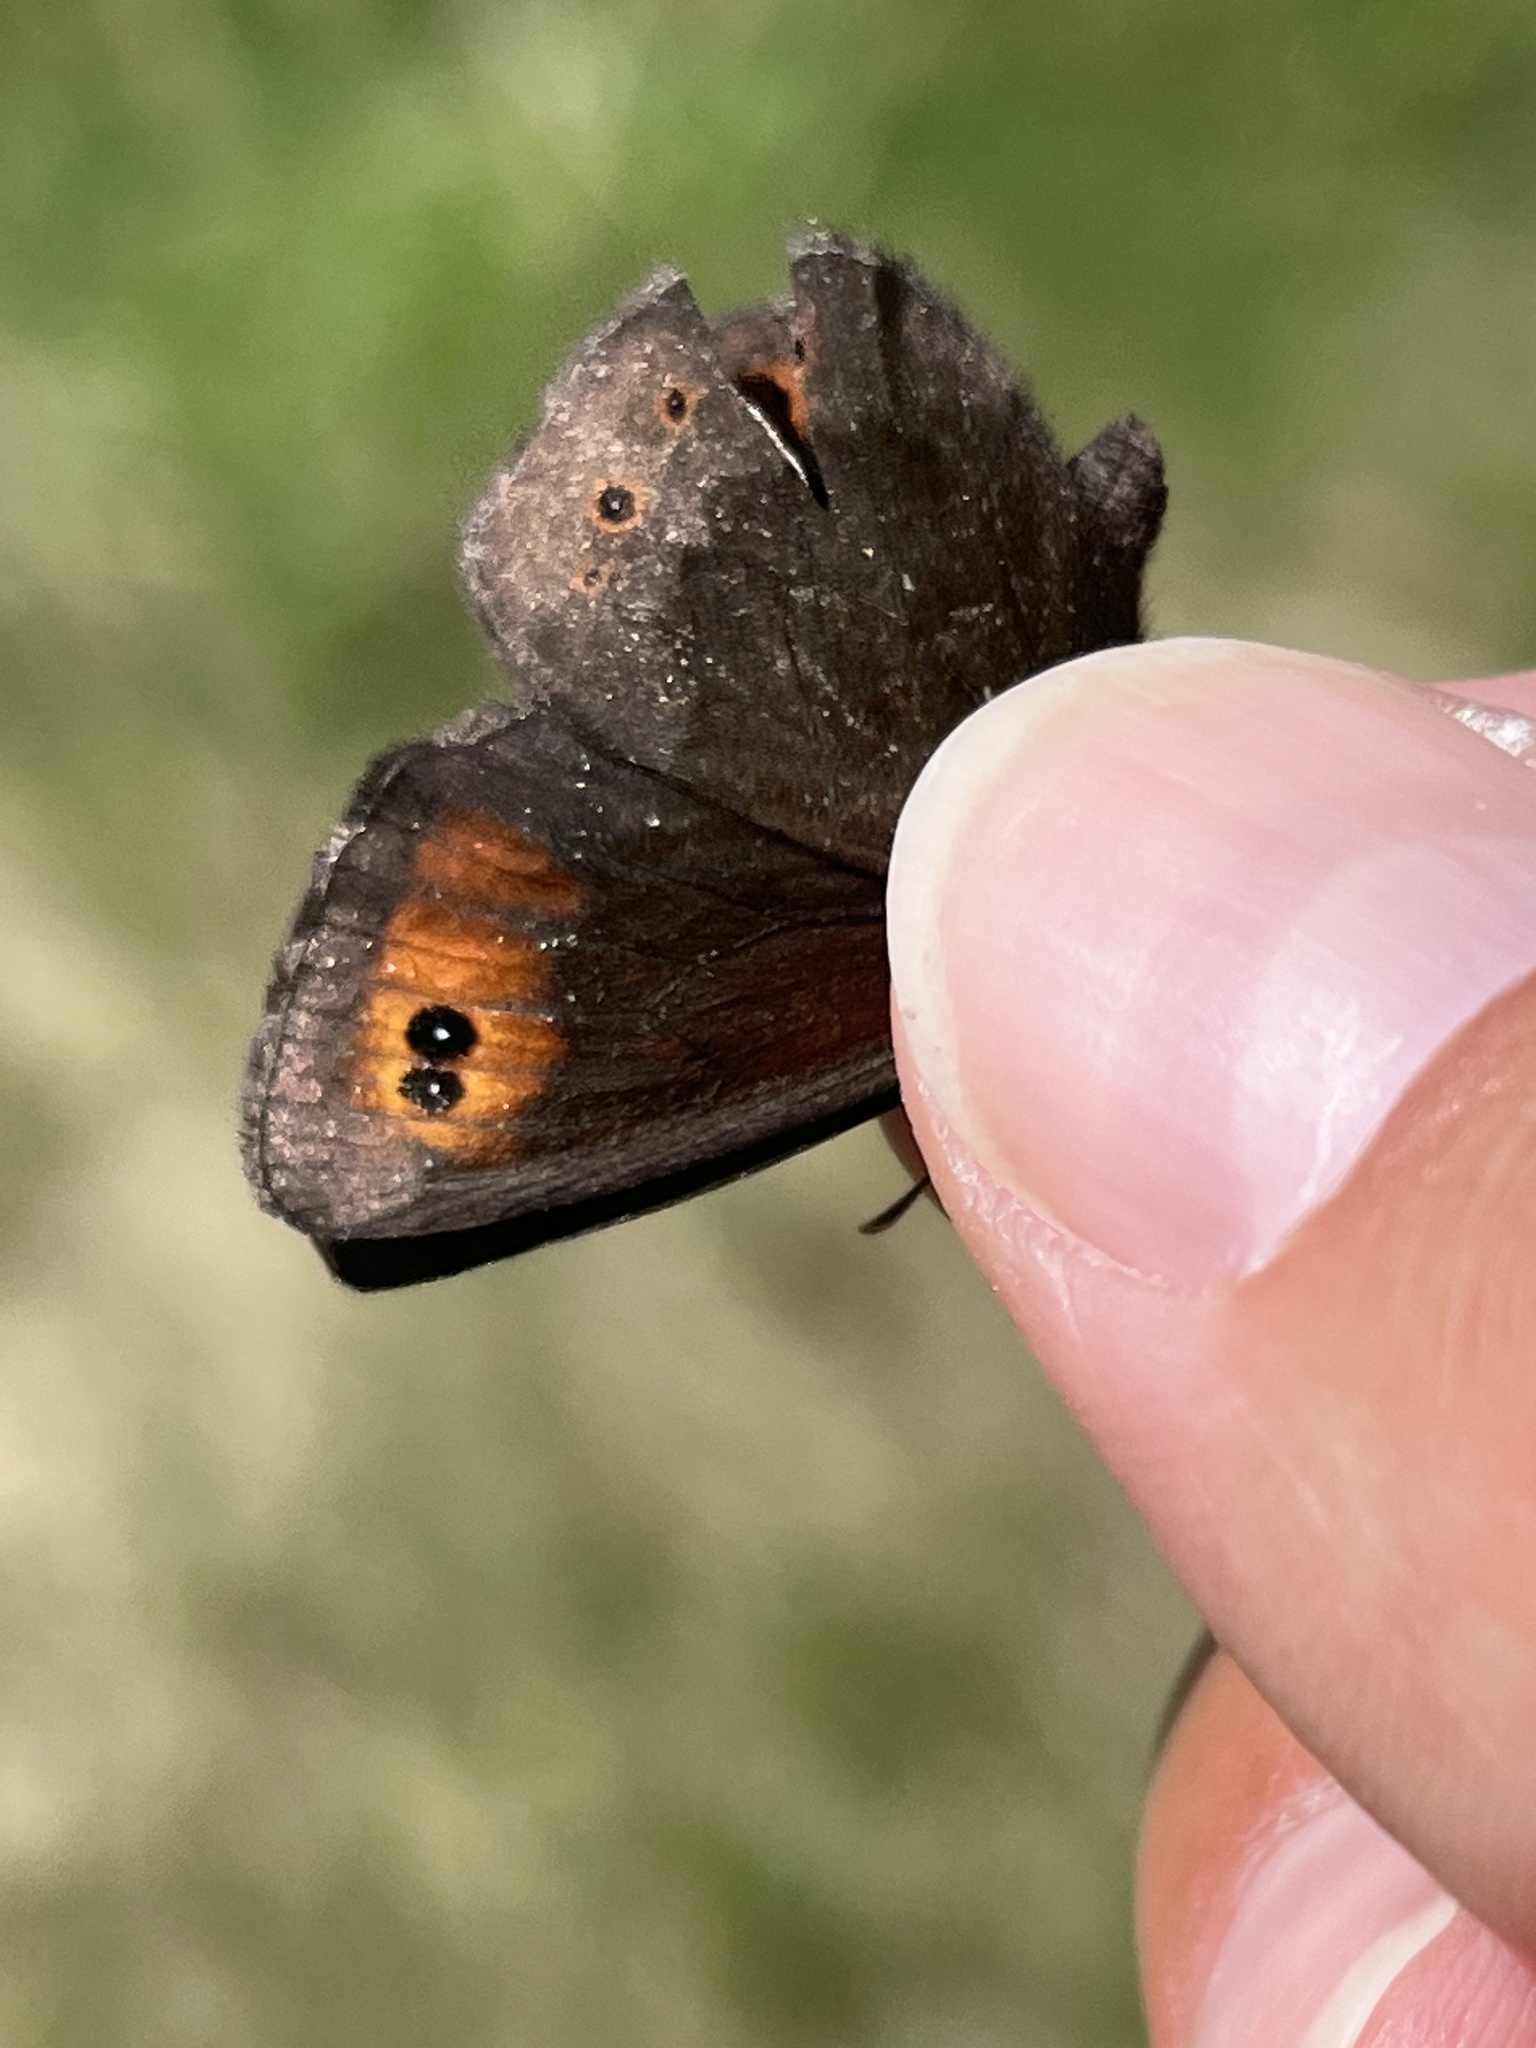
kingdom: Animalia
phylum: Arthropoda
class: Insecta
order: Lepidoptera
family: Nymphalidae
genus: Erebia
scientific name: Erebia epipsodea
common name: Common alpine
